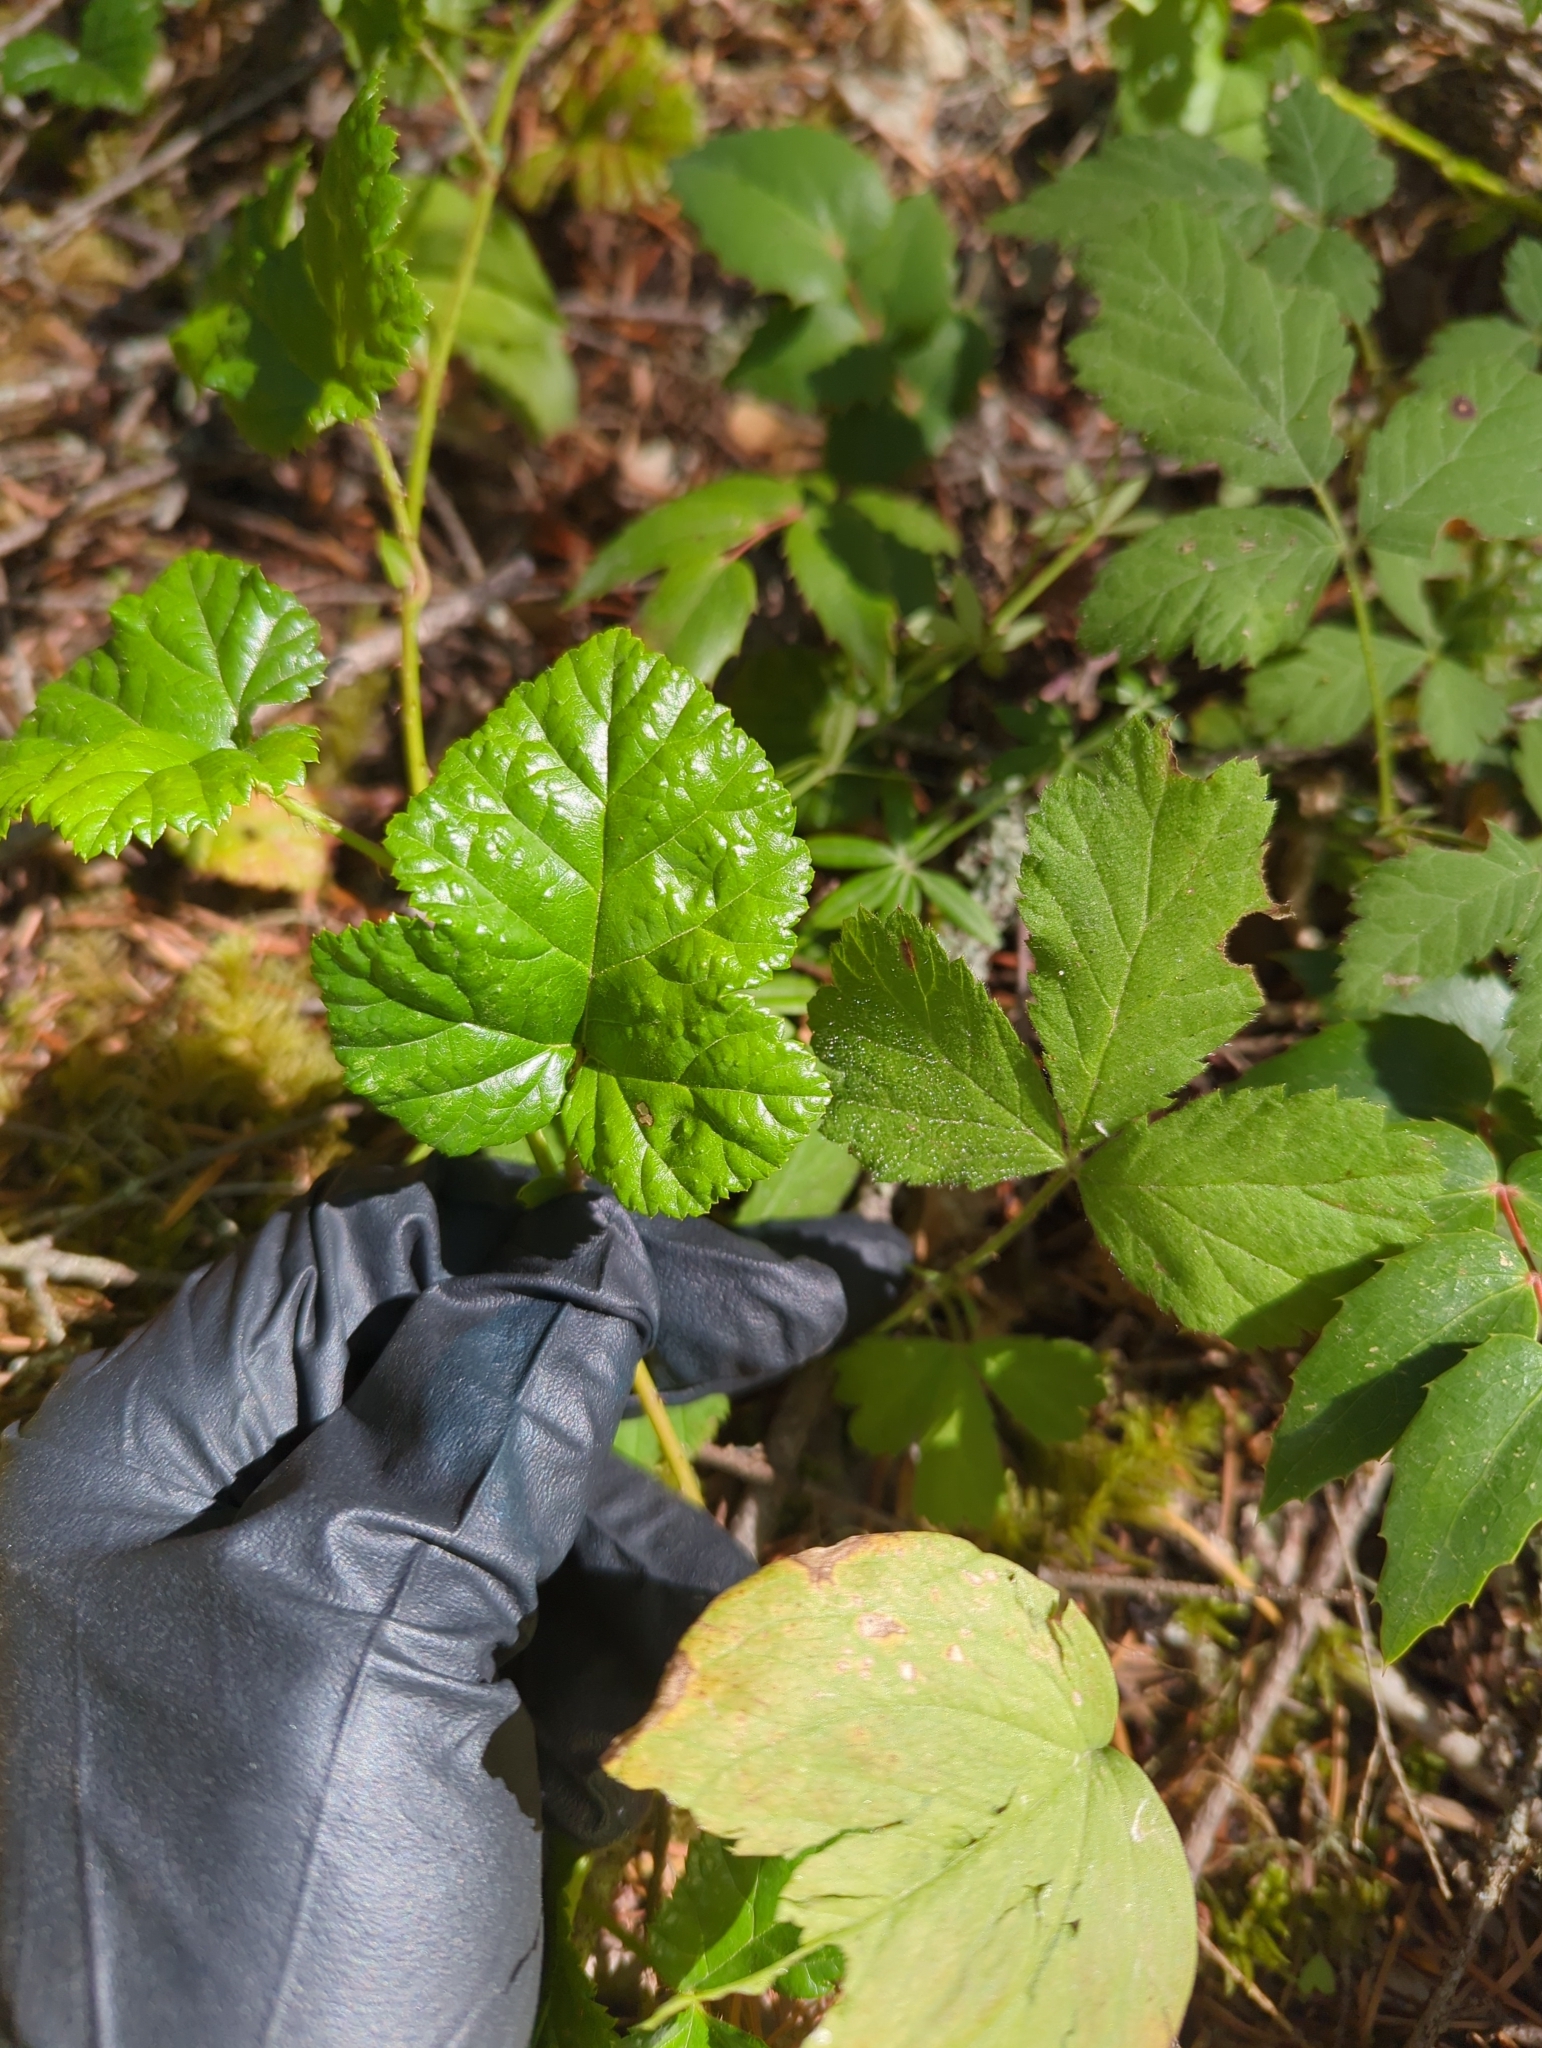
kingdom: Plantae
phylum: Tracheophyta
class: Magnoliopsida
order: Rosales
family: Rosaceae
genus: Rubus
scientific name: Rubus nivalis
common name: Dwarf snow bramble
